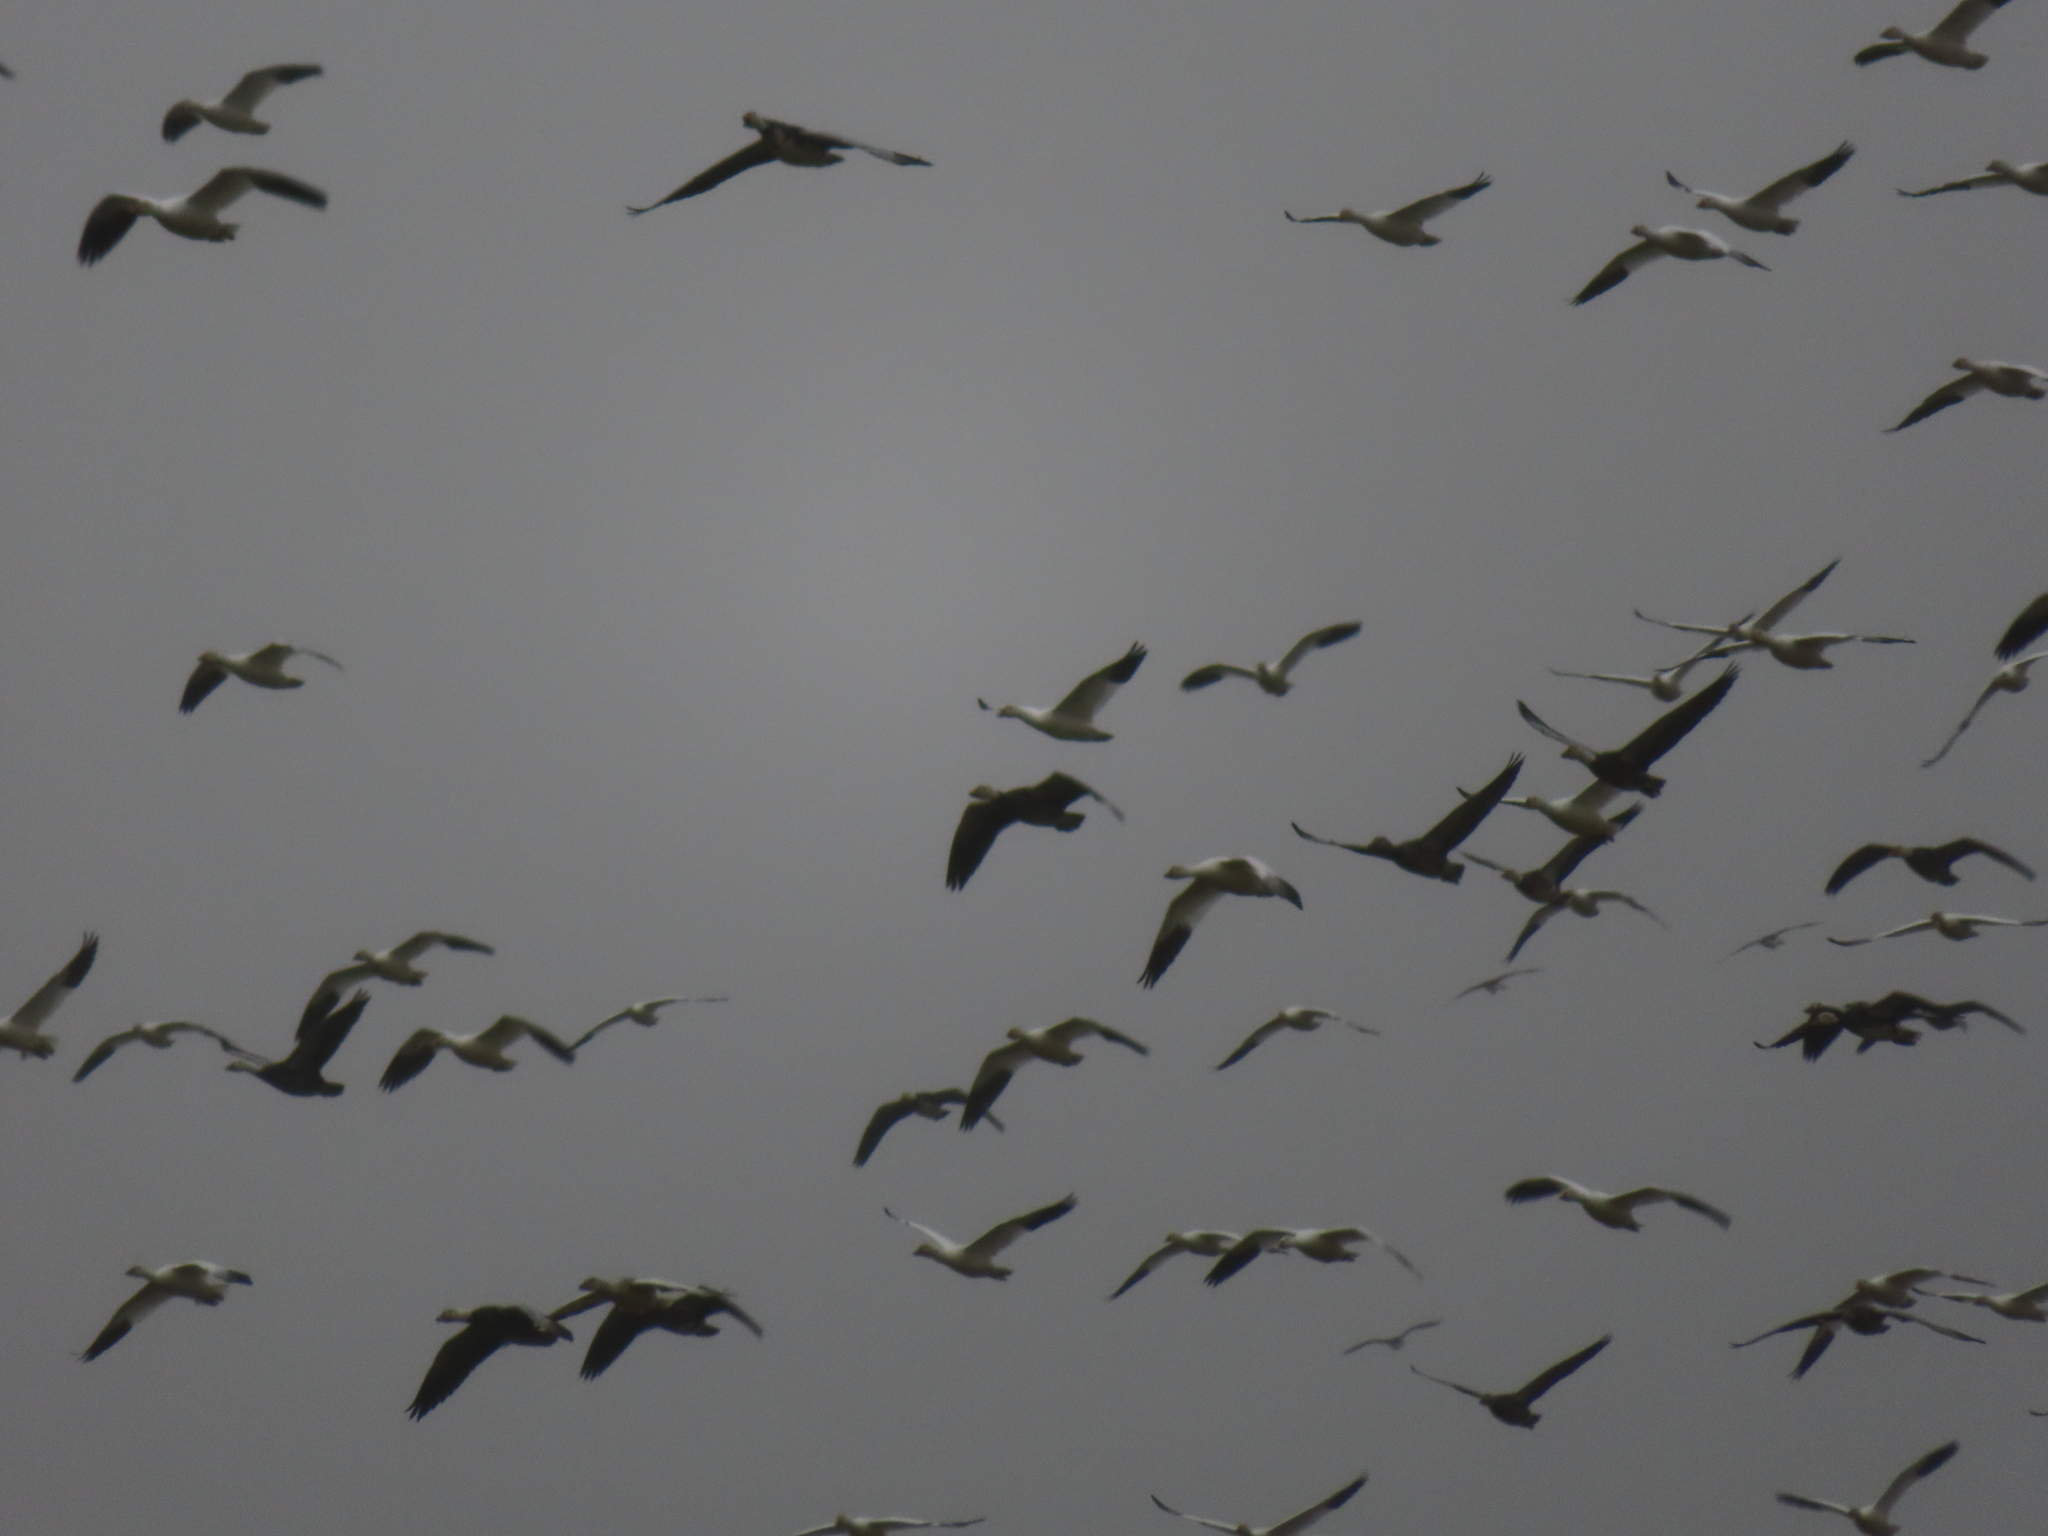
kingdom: Animalia
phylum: Chordata
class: Aves
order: Anseriformes
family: Anatidae
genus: Anser
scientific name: Anser caerulescens
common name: Snow goose
